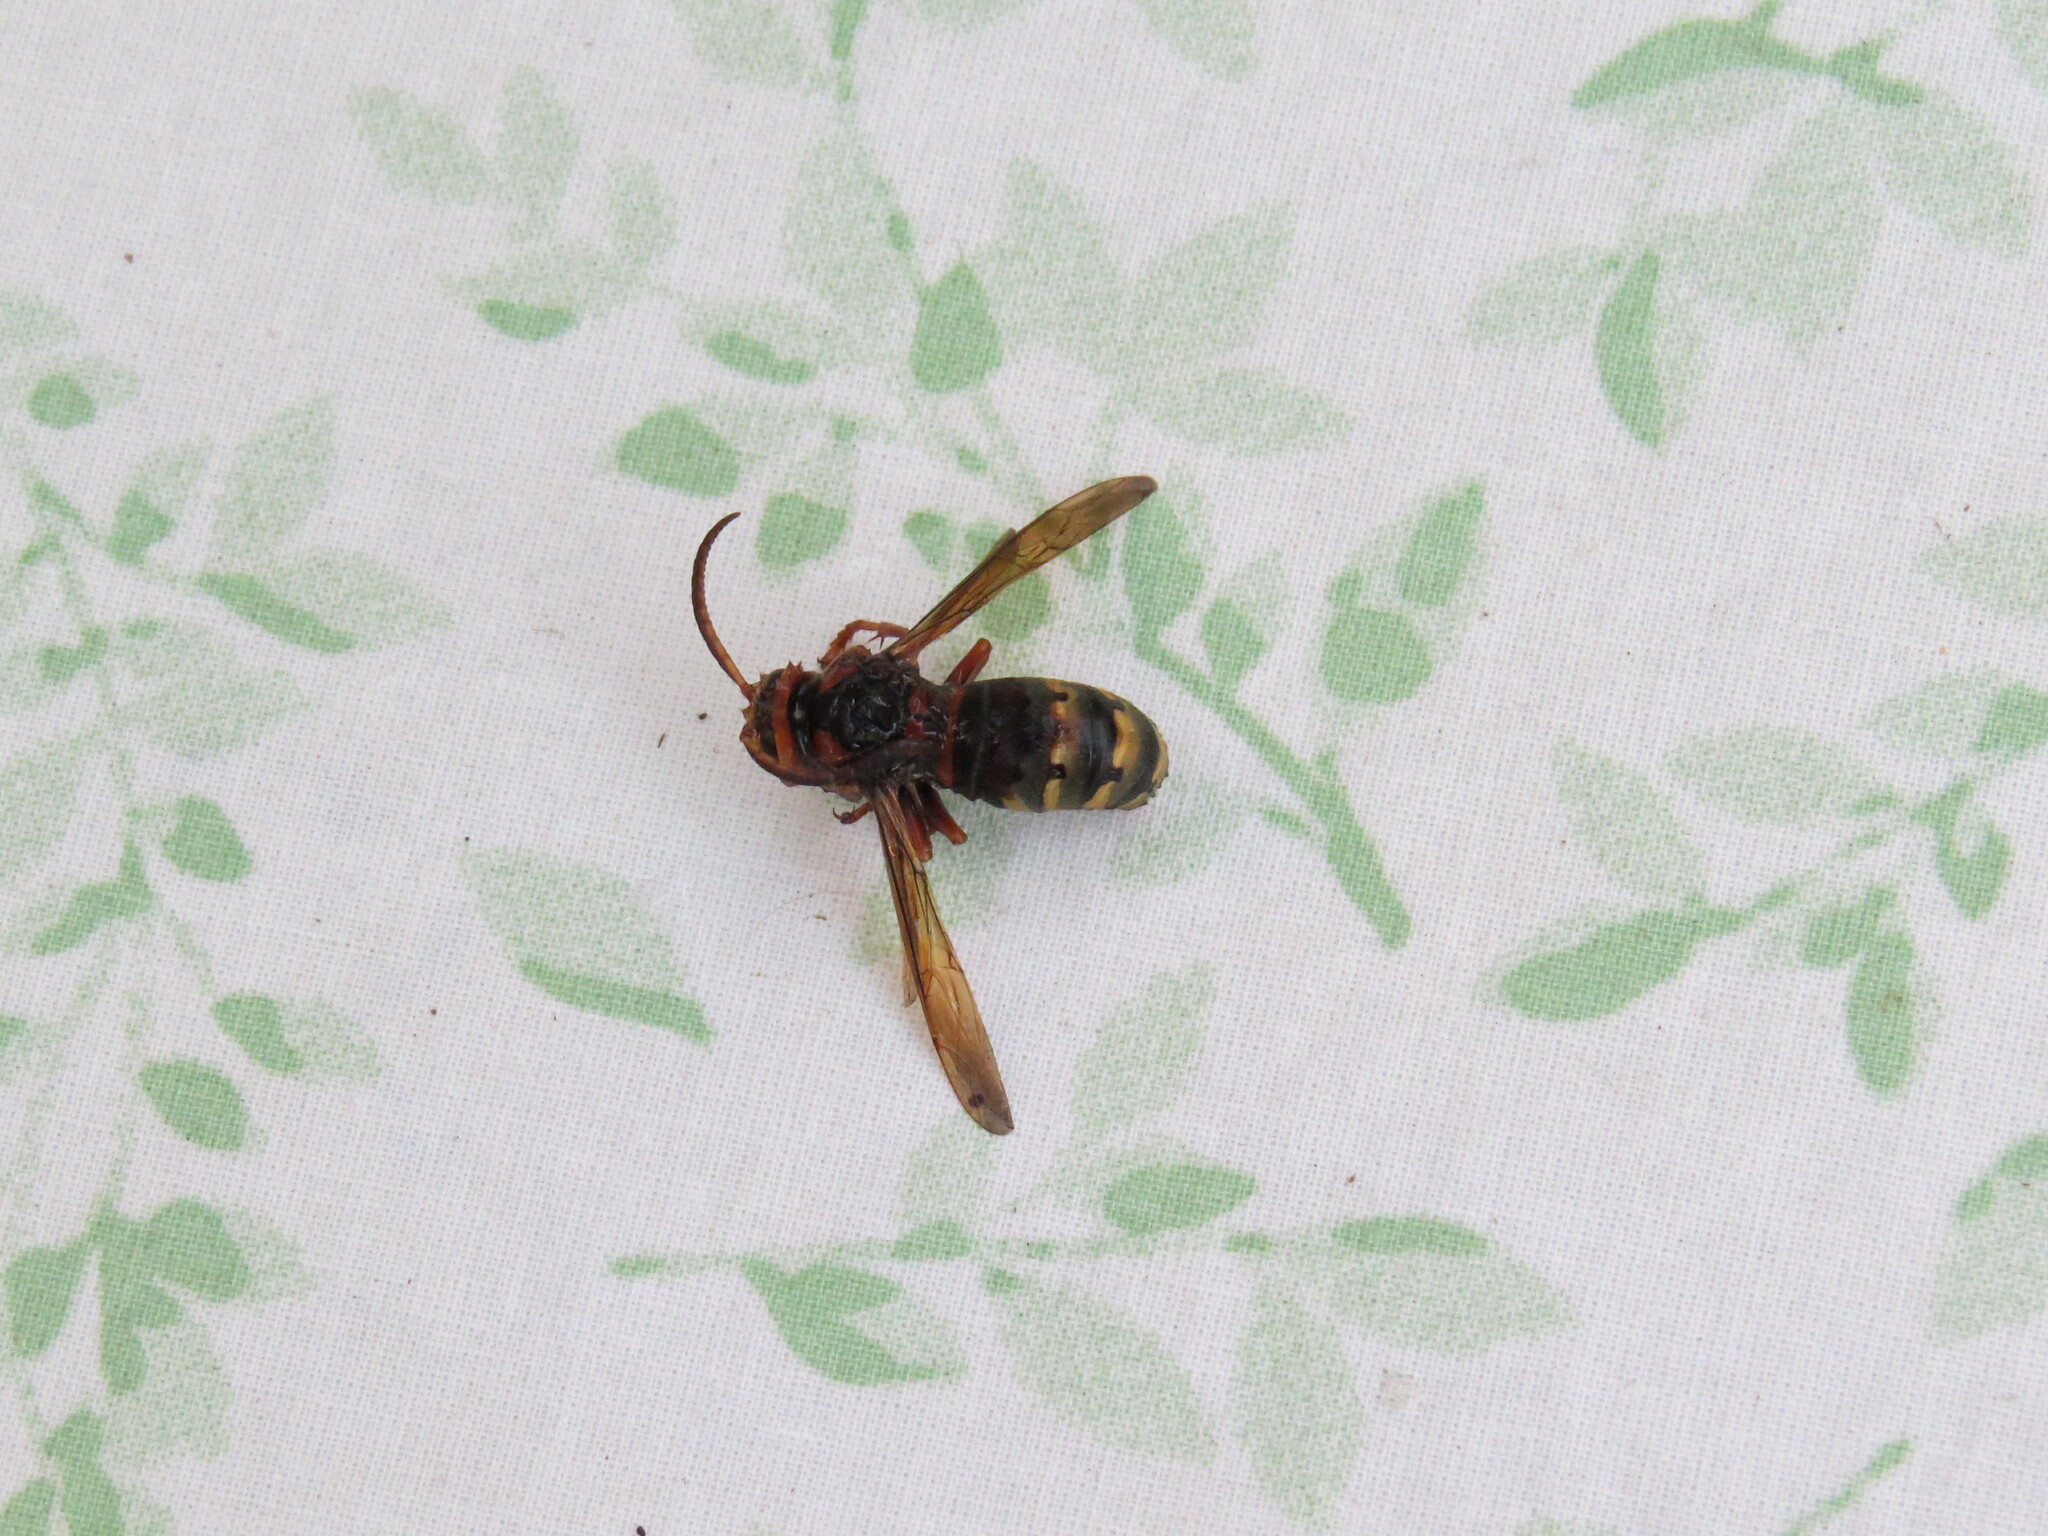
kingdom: Animalia
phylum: Arthropoda
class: Insecta
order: Hymenoptera
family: Vespidae
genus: Vespa
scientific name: Vespa crabro
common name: Hornet
